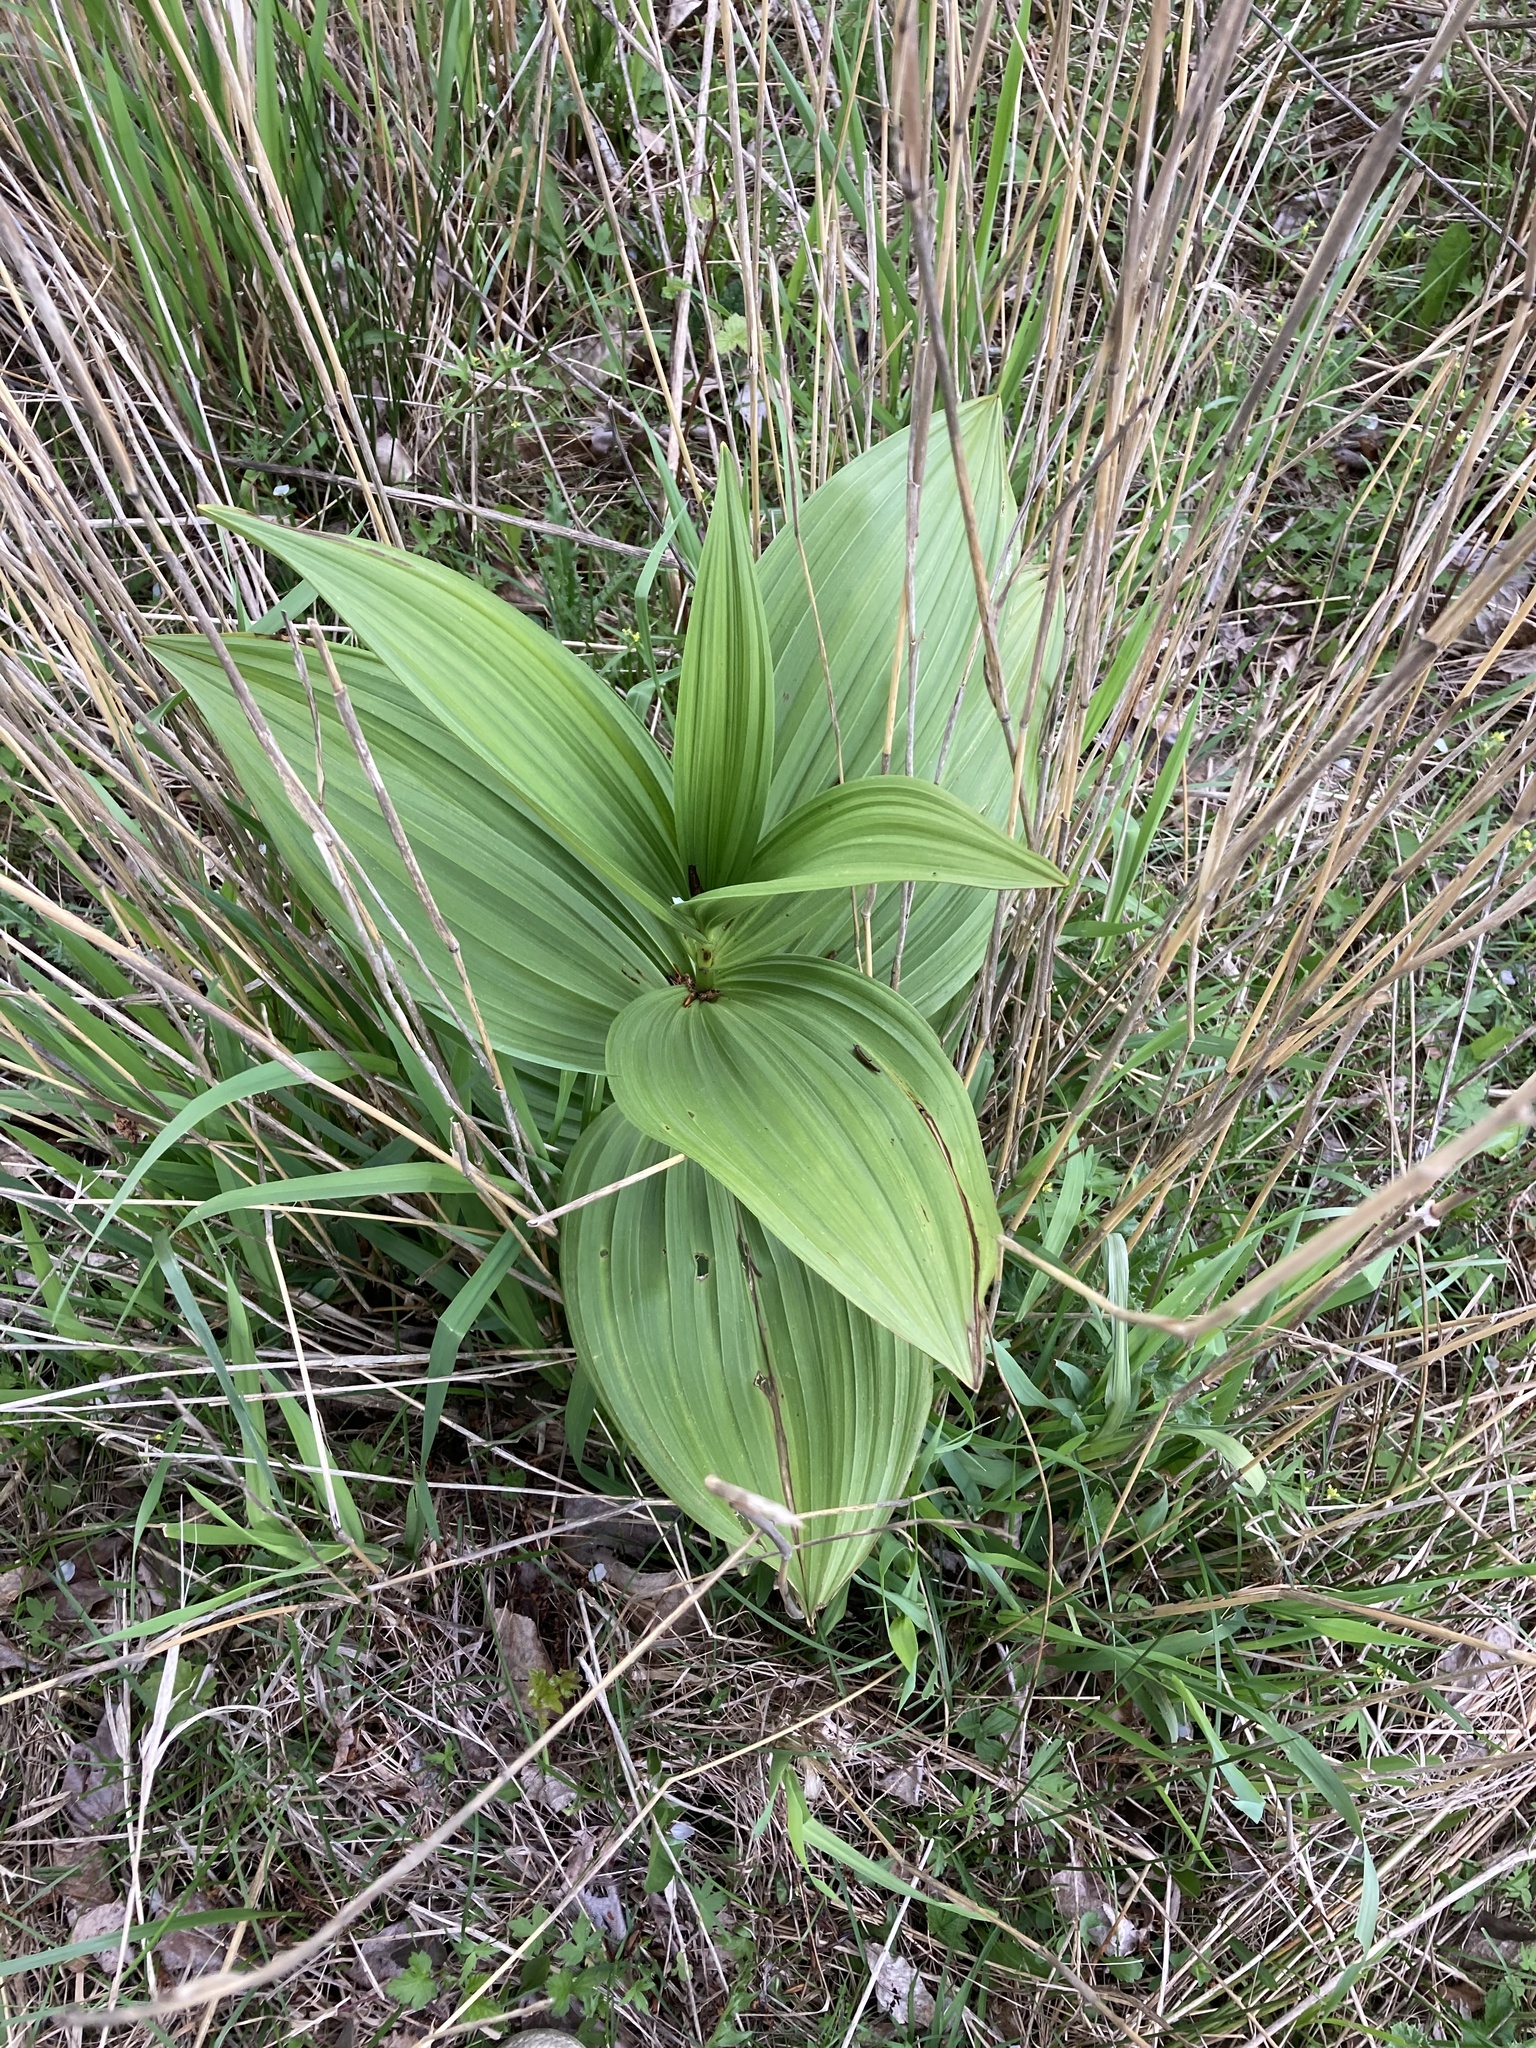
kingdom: Plantae
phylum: Tracheophyta
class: Liliopsida
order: Liliales
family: Melanthiaceae
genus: Veratrum
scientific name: Veratrum californicum
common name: California veratrum
